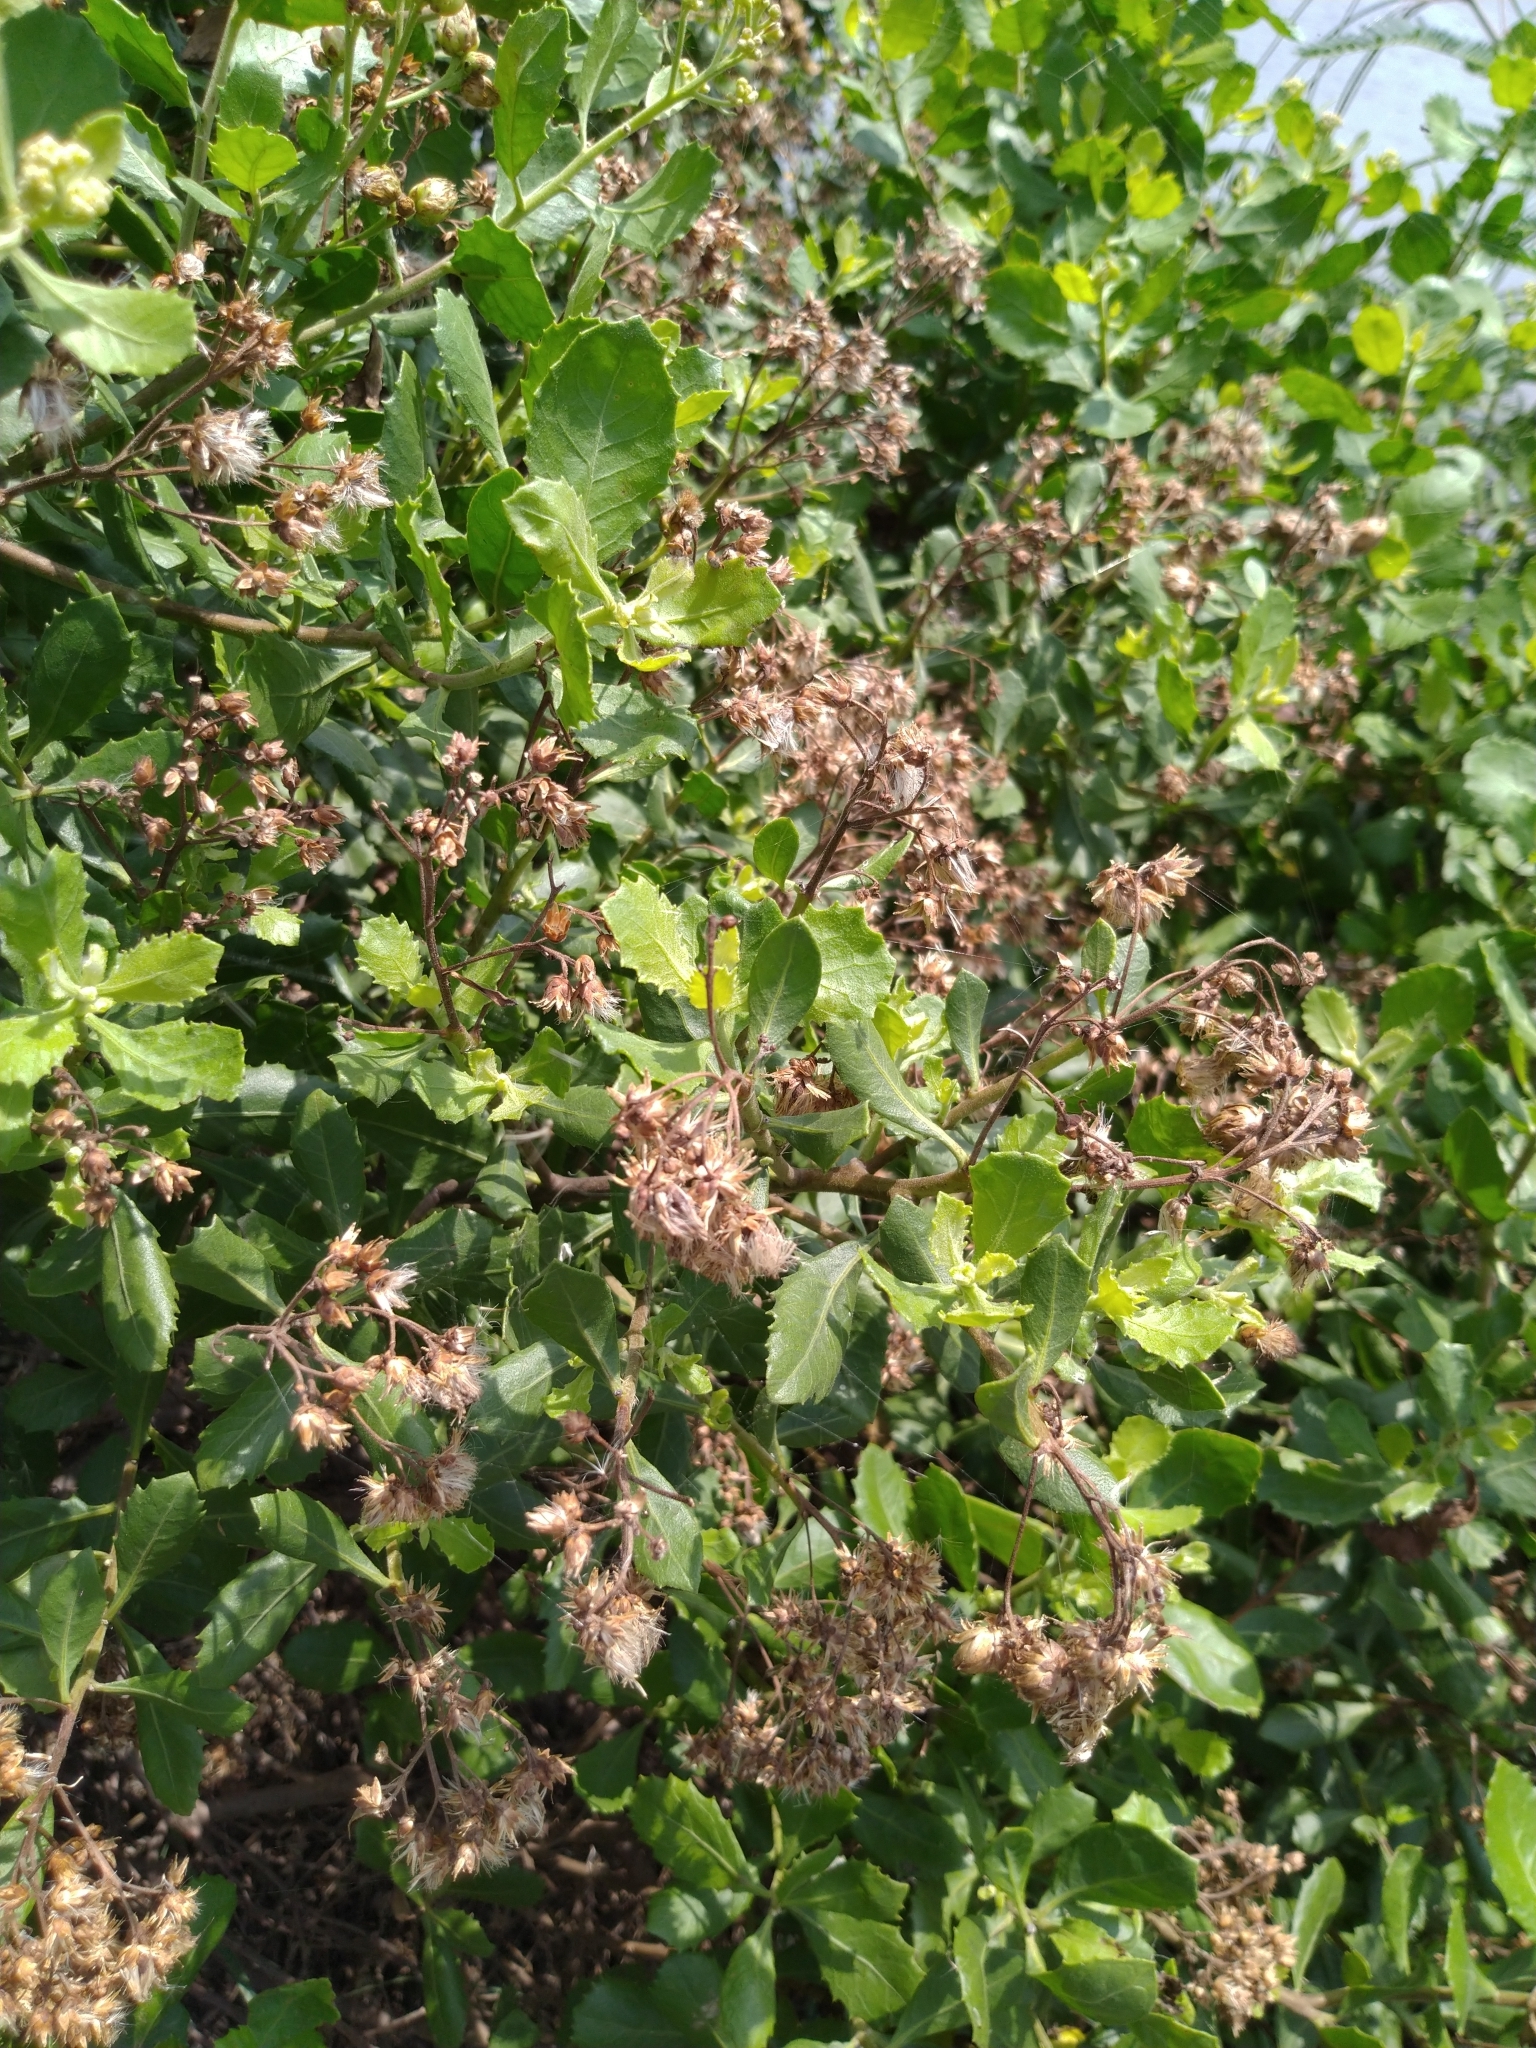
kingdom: Plantae
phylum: Tracheophyta
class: Magnoliopsida
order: Asterales
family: Asteraceae
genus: Pluchea
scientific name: Pluchea indica
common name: Indian fleabane
